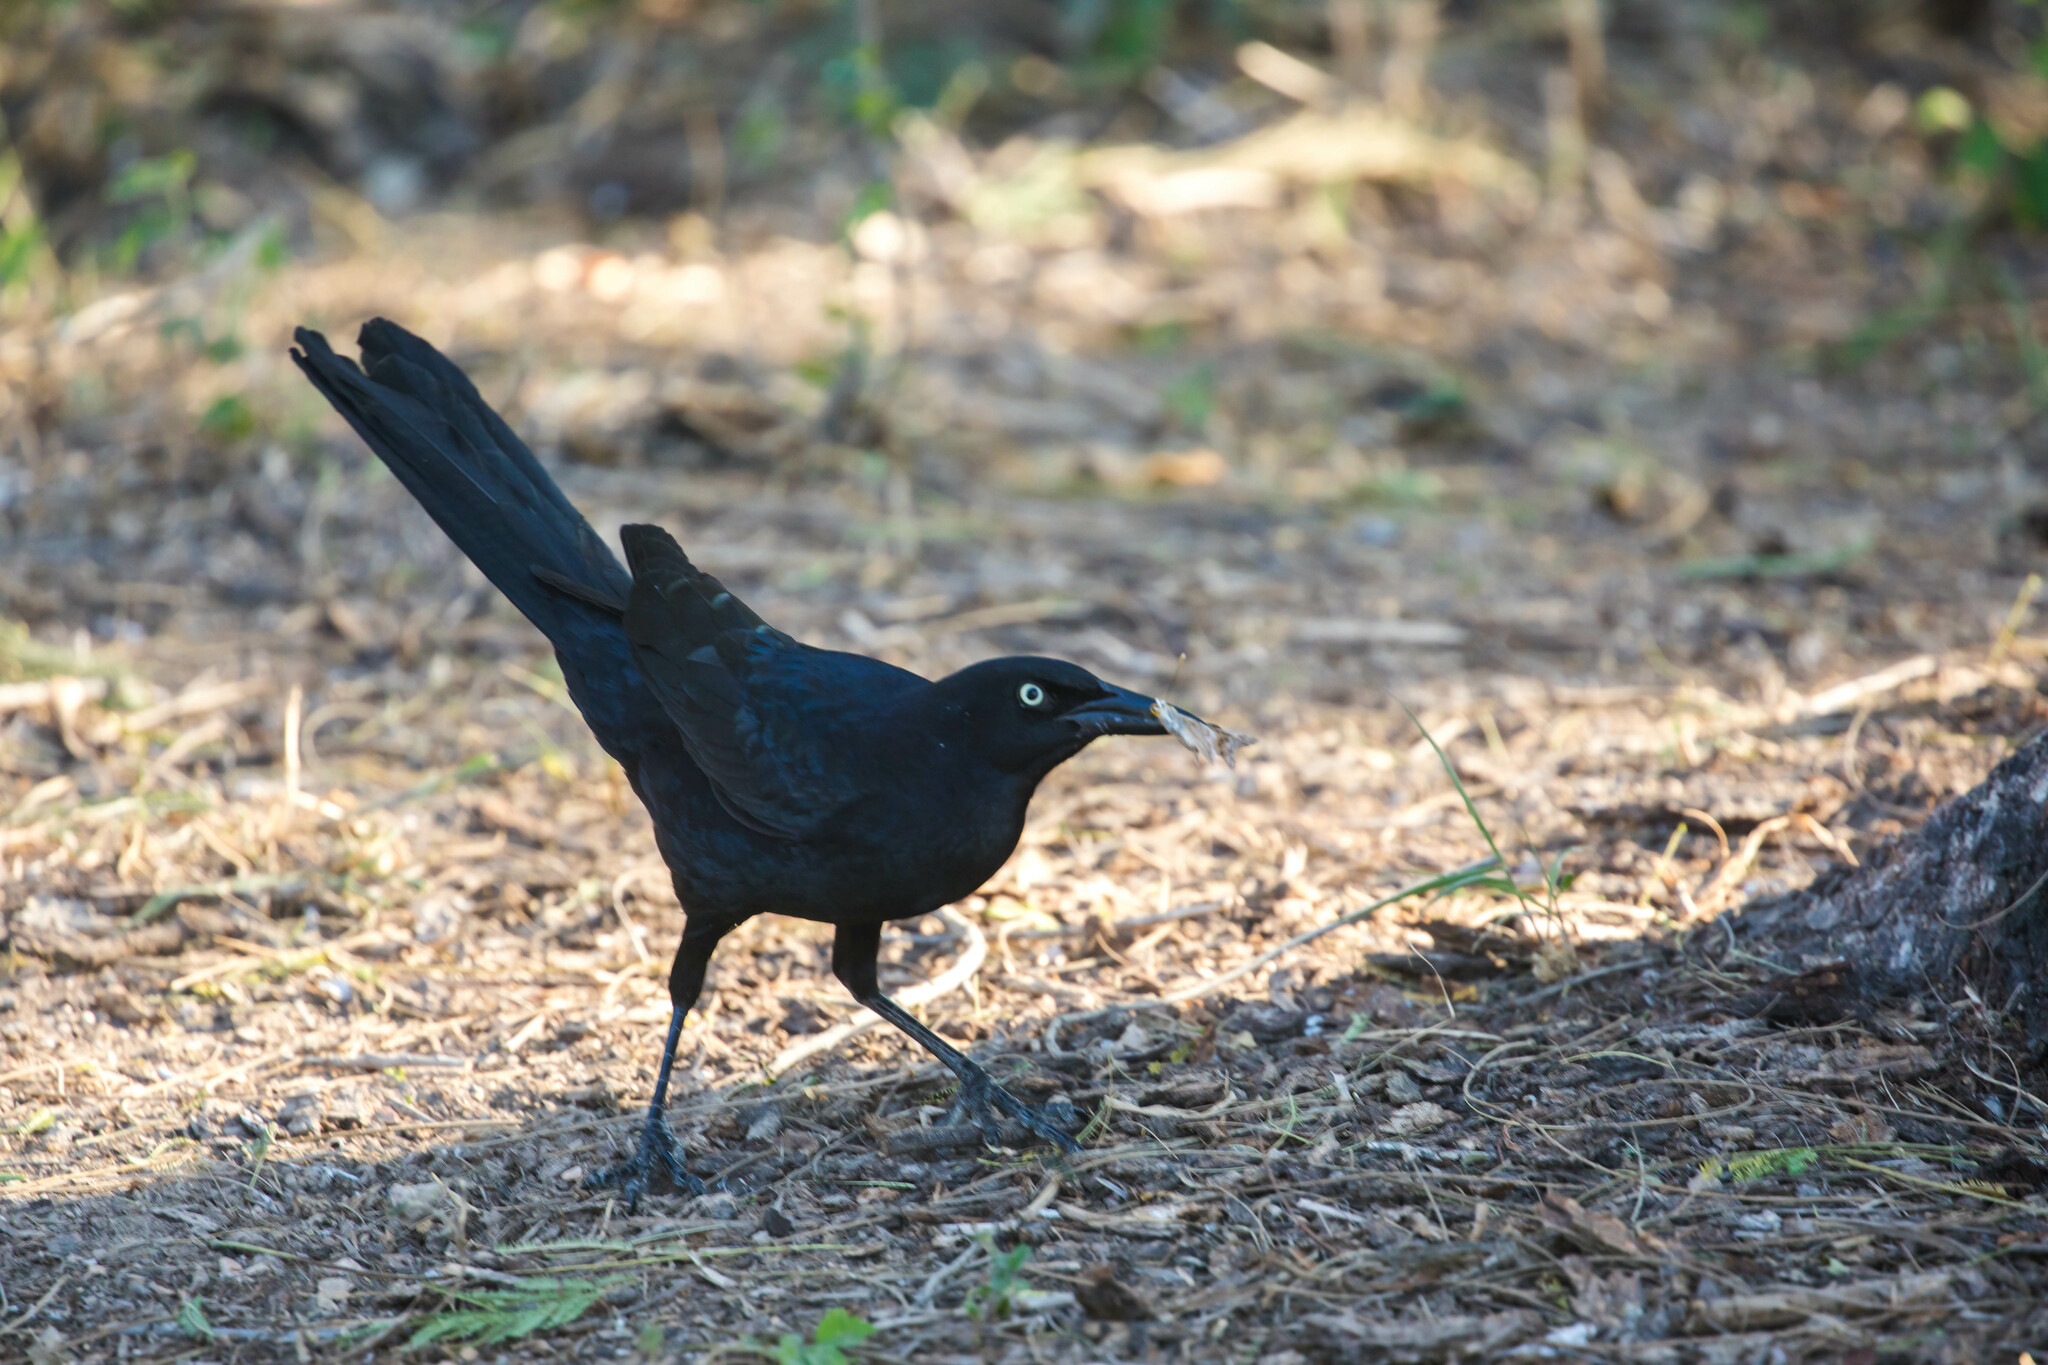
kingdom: Animalia
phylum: Chordata
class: Aves
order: Passeriformes
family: Icteridae
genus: Quiscalus
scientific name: Quiscalus mexicanus
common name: Great-tailed grackle
